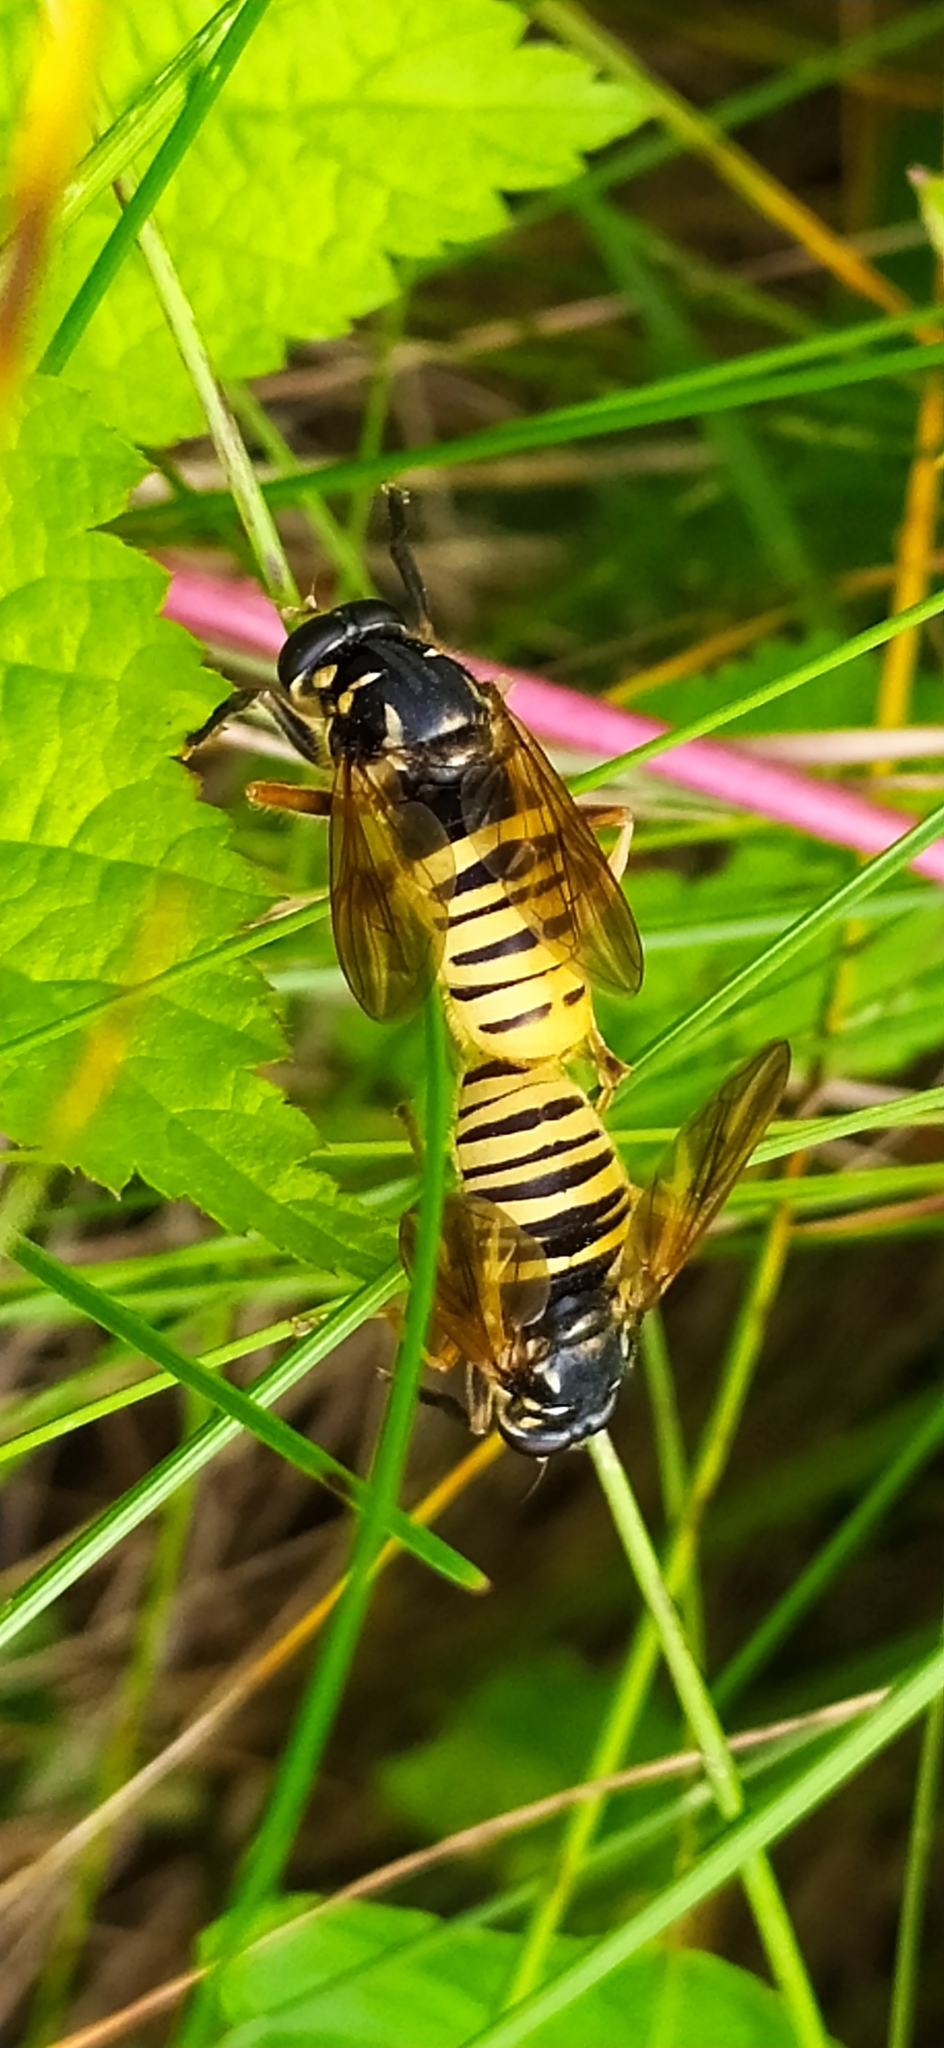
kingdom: Animalia
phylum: Arthropoda
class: Insecta
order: Diptera
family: Syrphidae
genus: Temnostoma
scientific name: Temnostoma vespiforme
